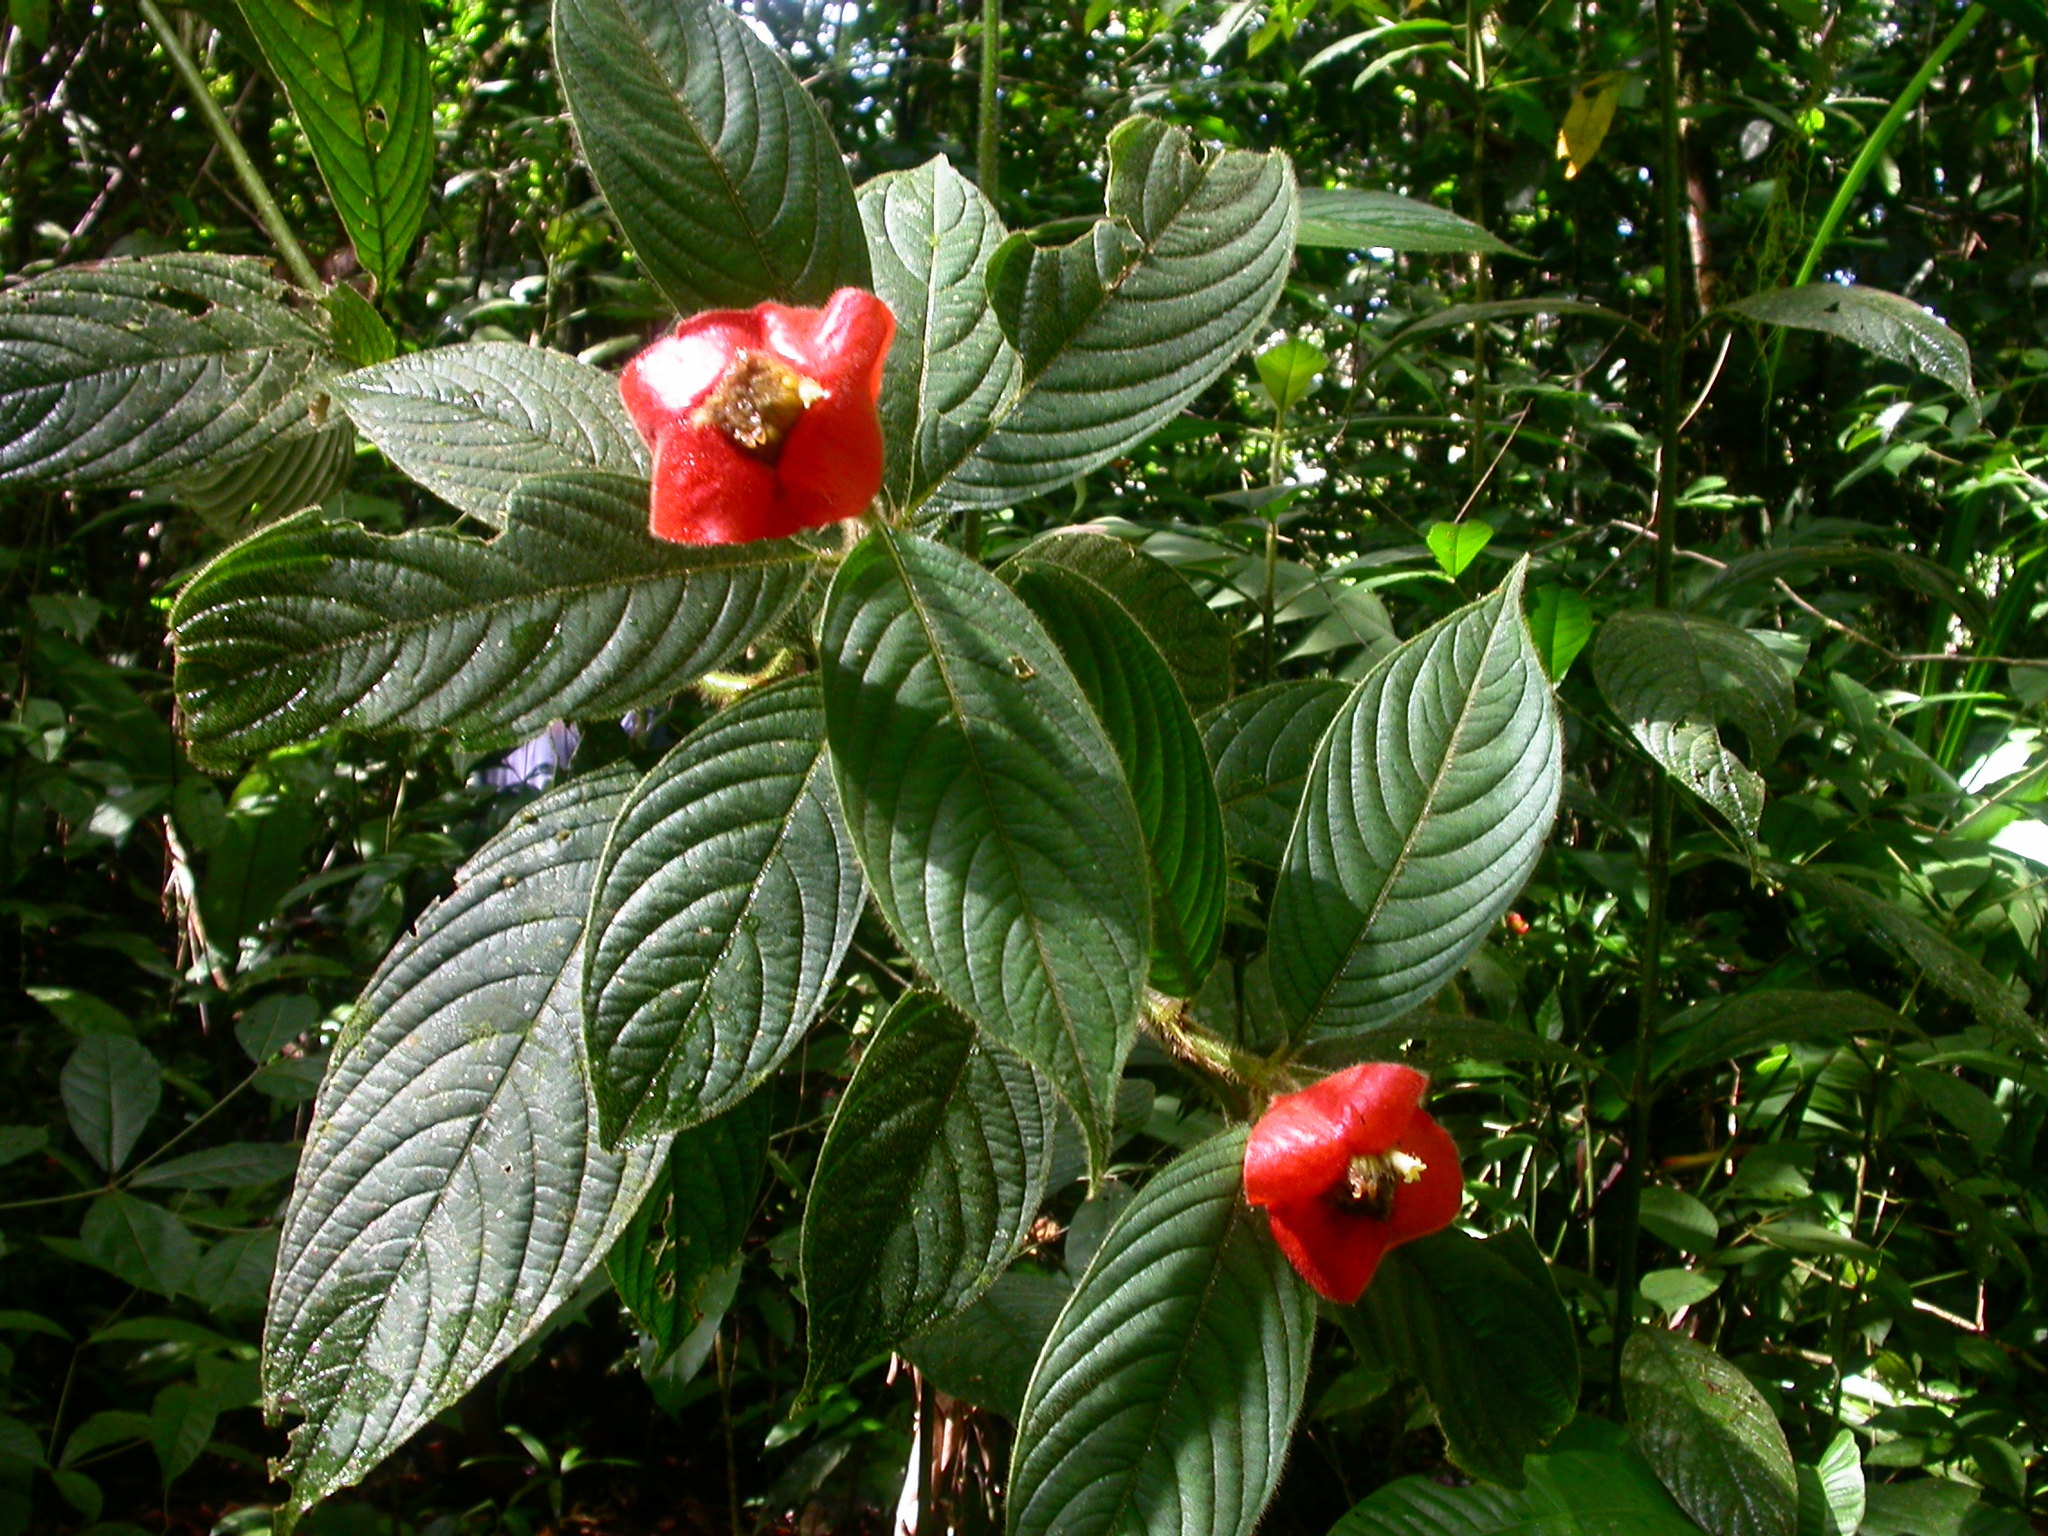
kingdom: Plantae
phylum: Tracheophyta
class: Magnoliopsida
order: Gentianales
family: Rubiaceae
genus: Palicourea
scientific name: Palicourea tomentosa
